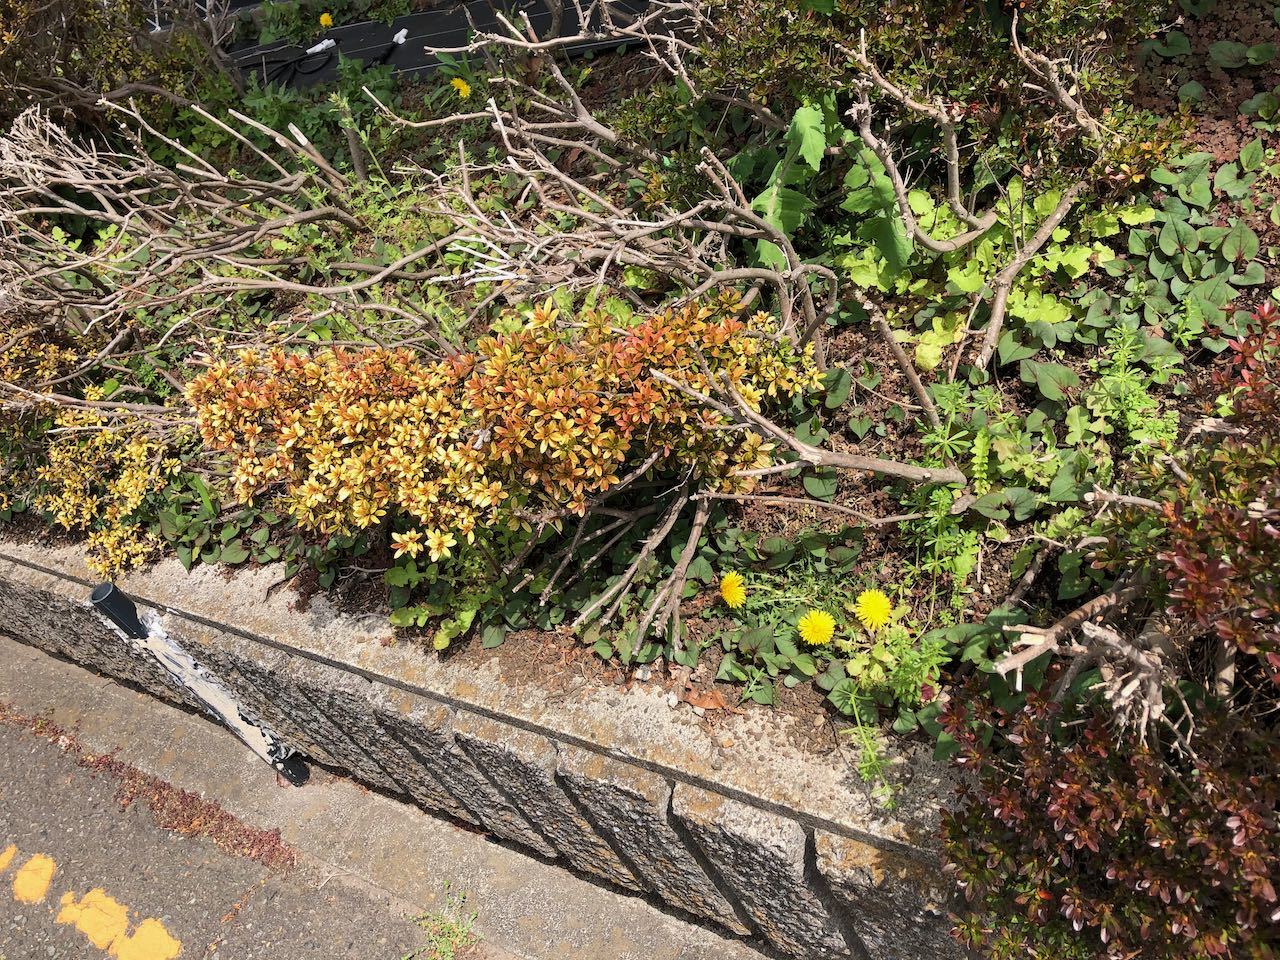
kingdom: Plantae
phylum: Tracheophyta
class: Magnoliopsida
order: Asterales
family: Asteraceae
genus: Taraxacum
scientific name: Taraxacum officinale
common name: Common dandelion
